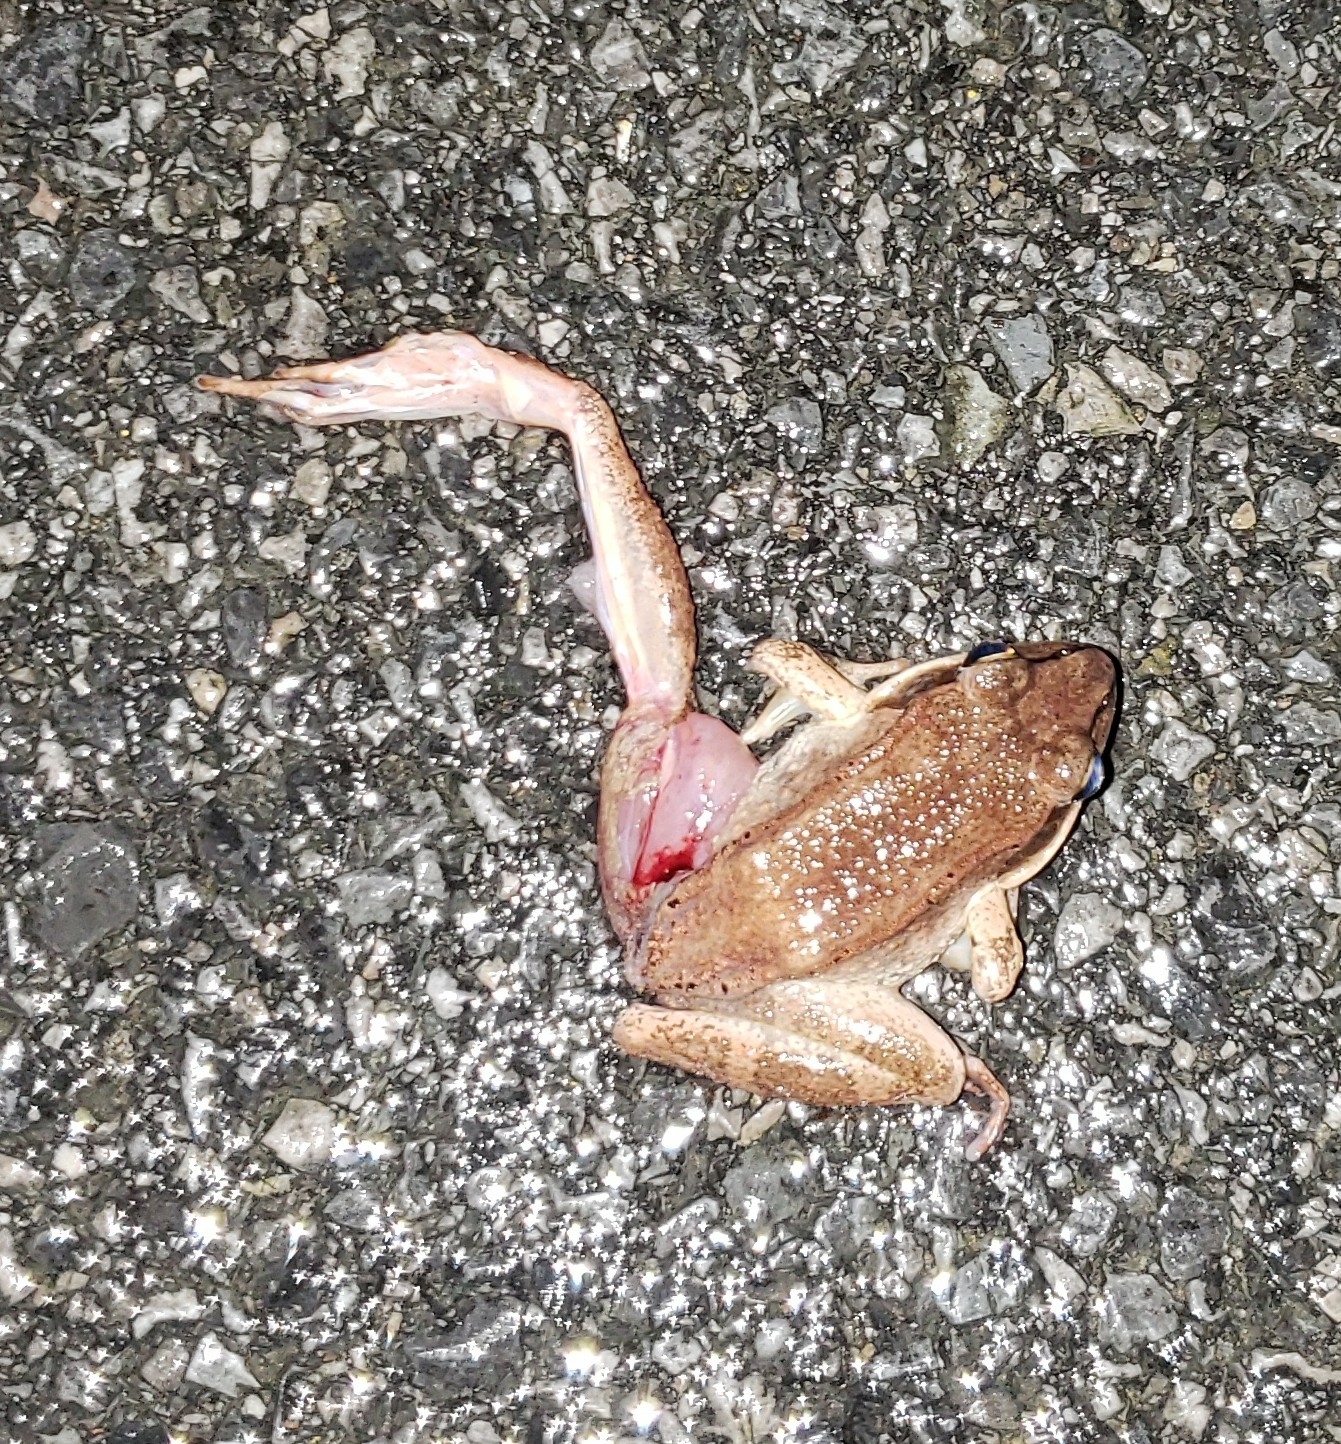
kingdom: Animalia
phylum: Chordata
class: Amphibia
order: Anura
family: Ranidae
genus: Lithobates
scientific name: Lithobates sylvaticus
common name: Wood frog
